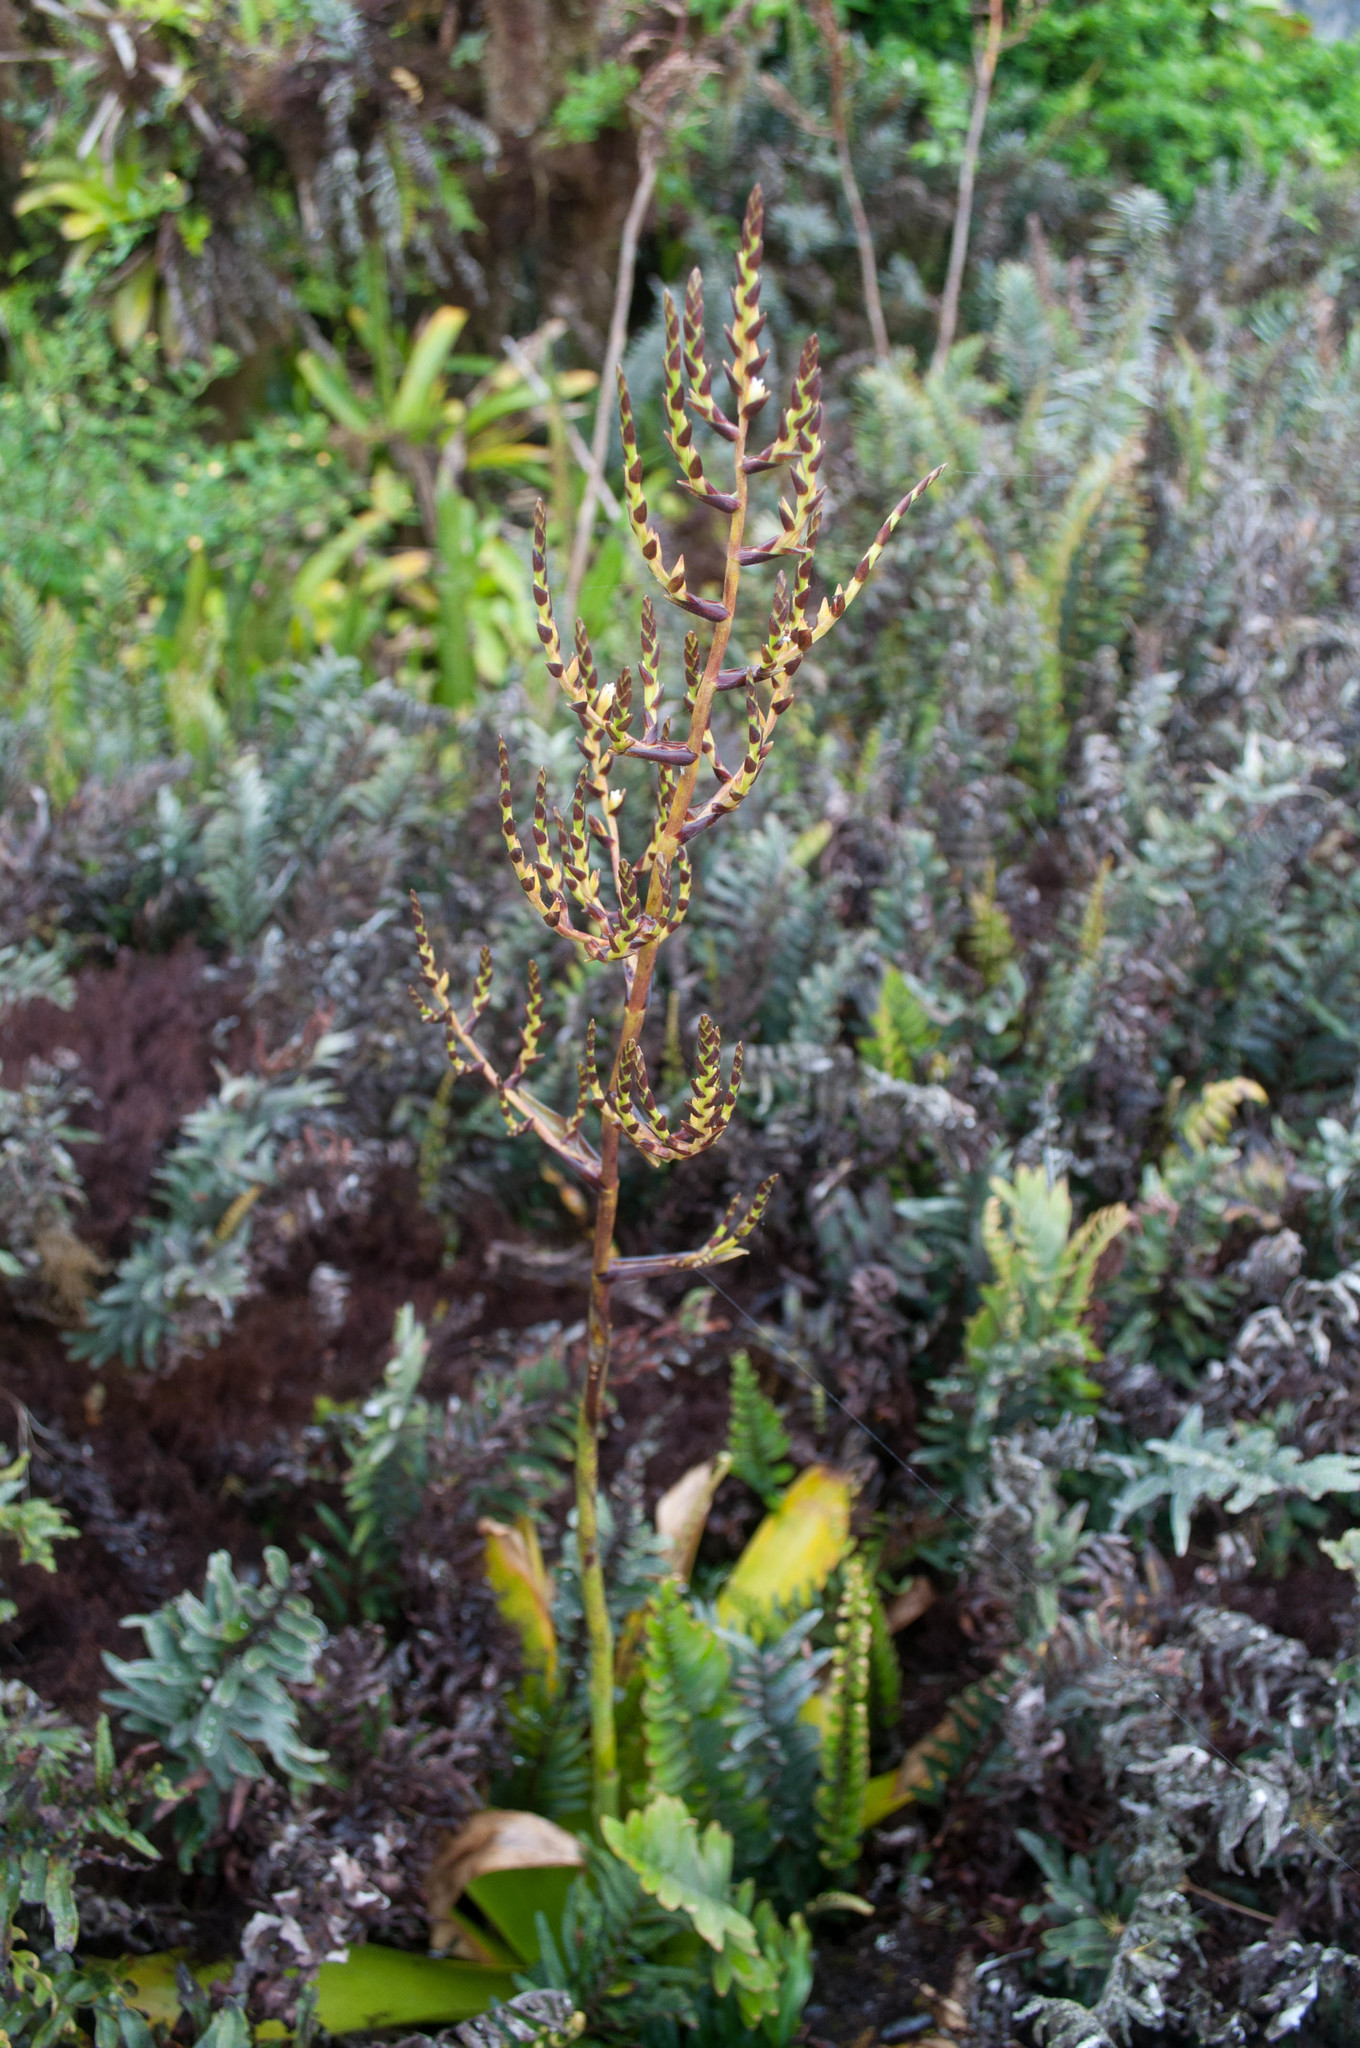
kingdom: Plantae
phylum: Tracheophyta
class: Liliopsida
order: Poales
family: Bromeliaceae
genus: Racinaea
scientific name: Racinaea insularis
